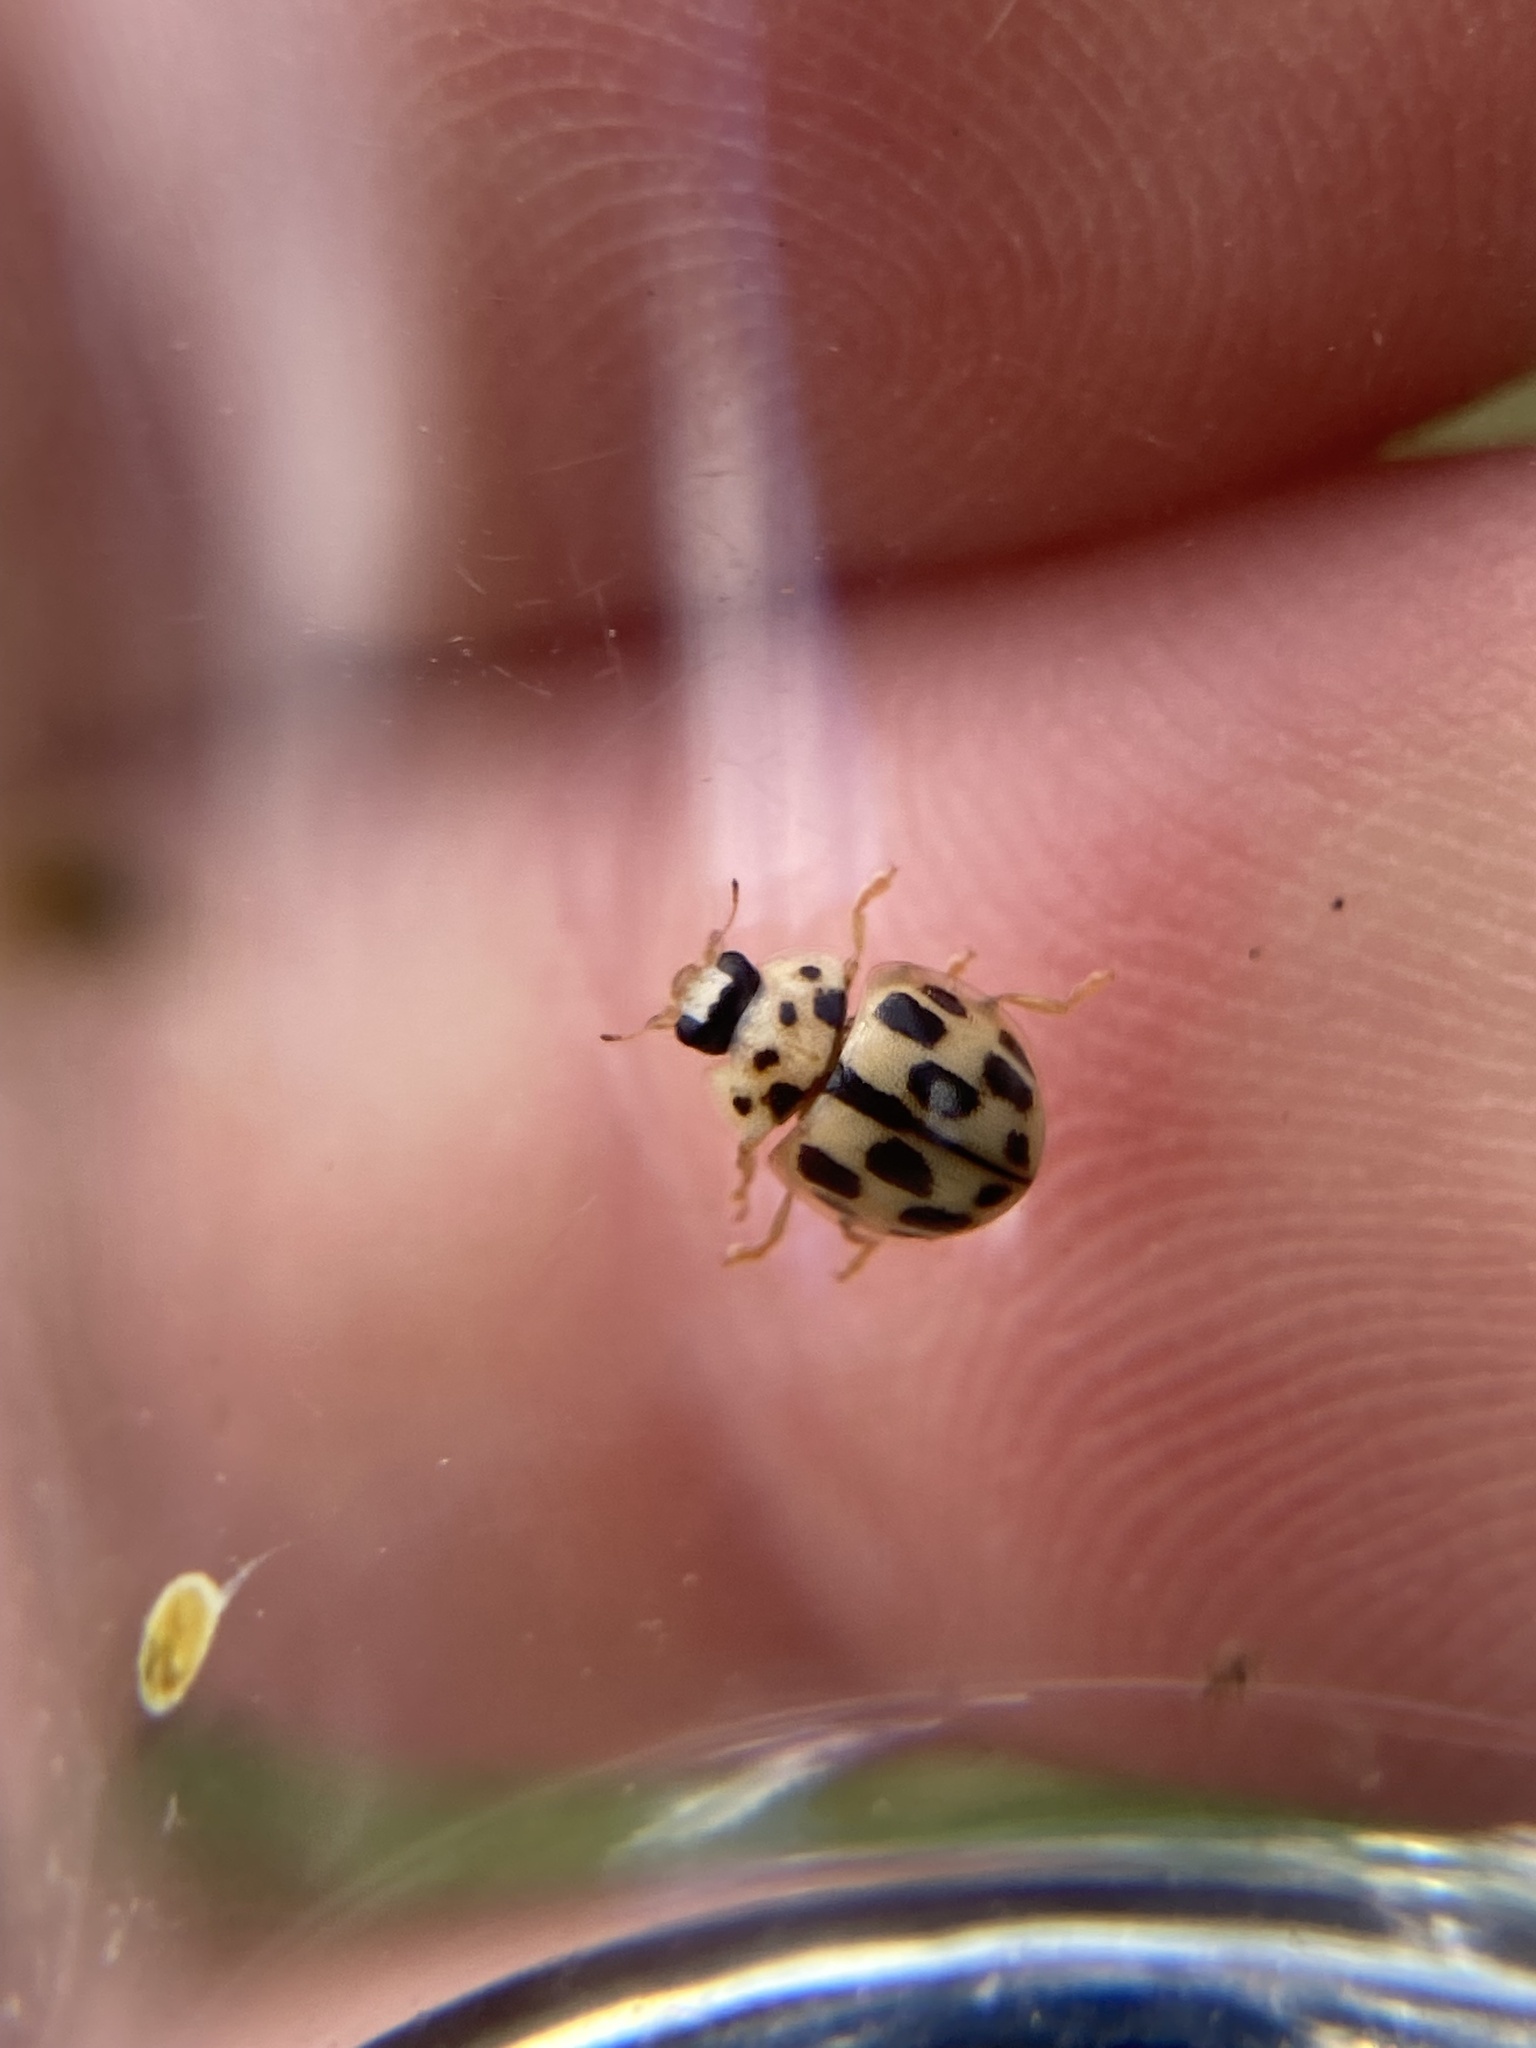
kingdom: Animalia
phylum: Arthropoda
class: Insecta
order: Coleoptera
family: Coccinellidae
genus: Propylaea
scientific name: Propylaea quatuordecimpunctata
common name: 14-spotted ladybird beetle
